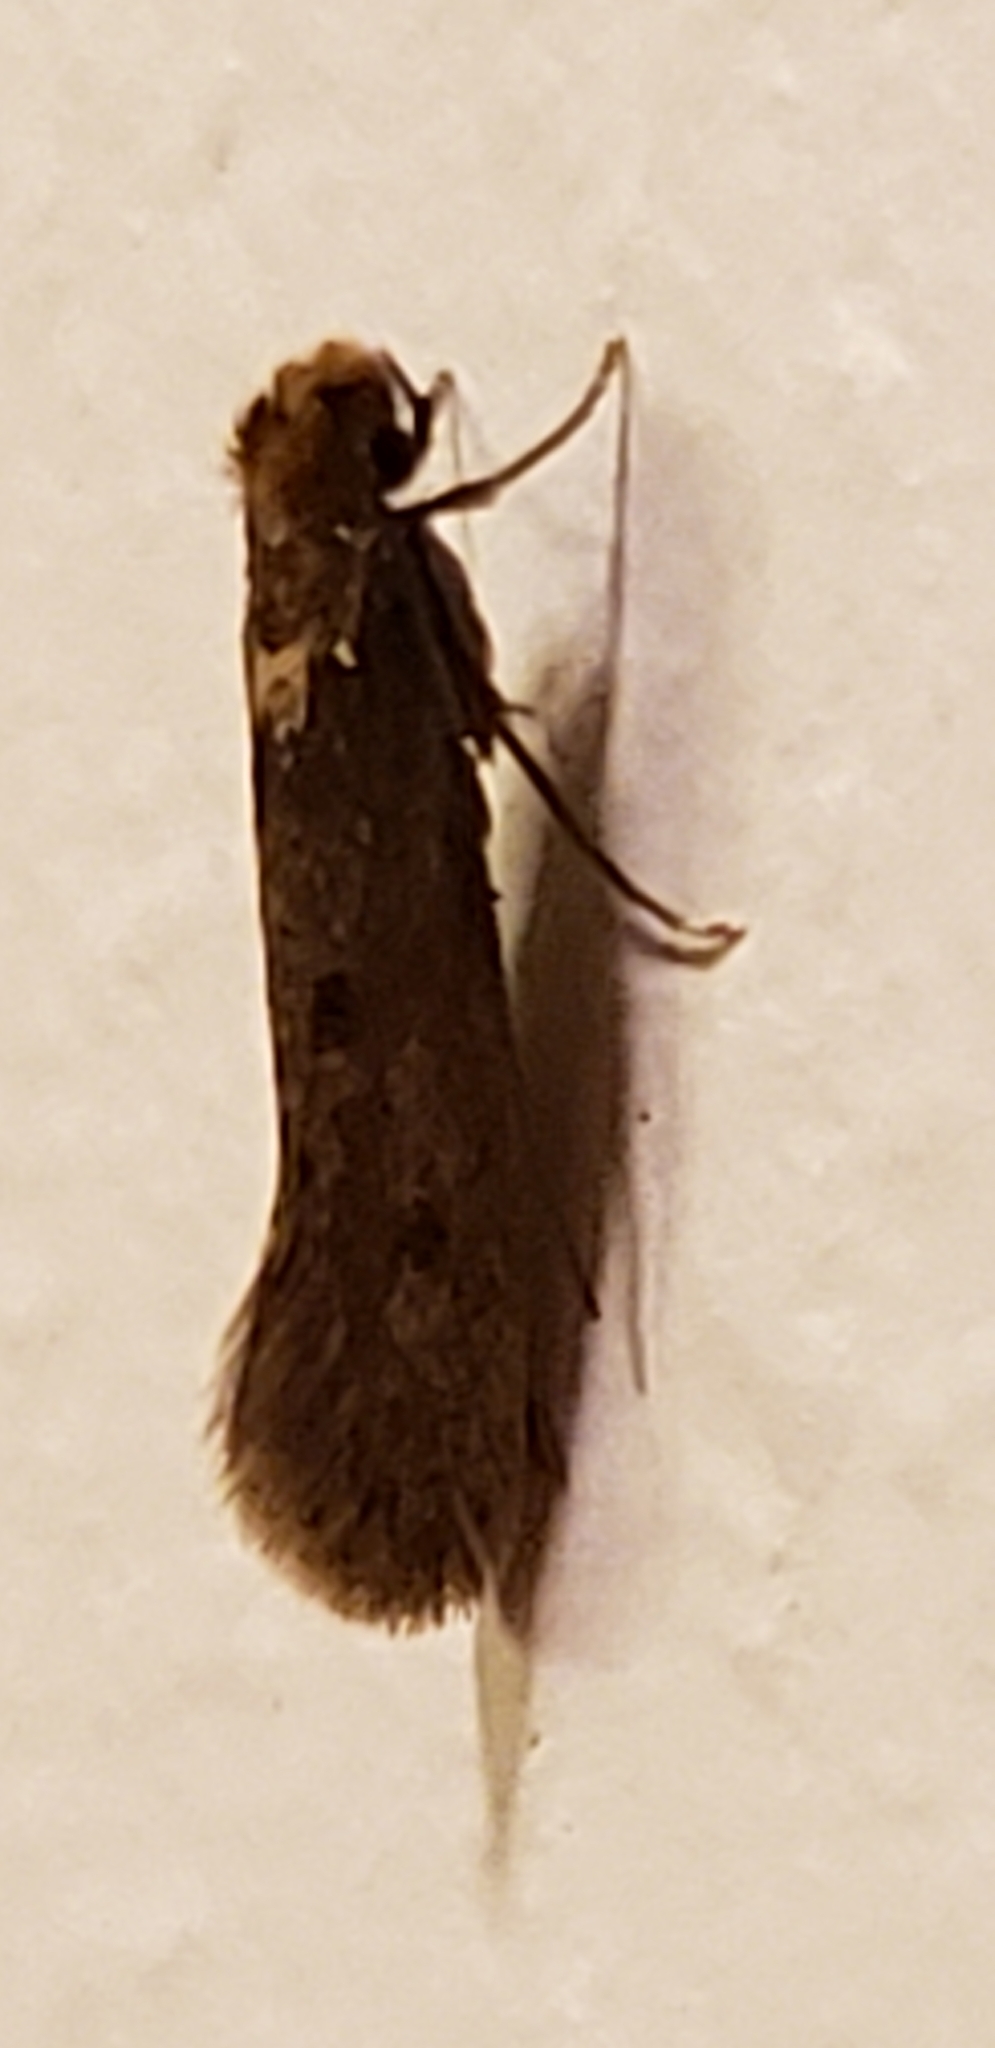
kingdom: Animalia
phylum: Arthropoda
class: Insecta
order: Lepidoptera
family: Tineidae
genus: Tinea
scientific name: Tinea pellionella
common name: Case-making clothes moth
